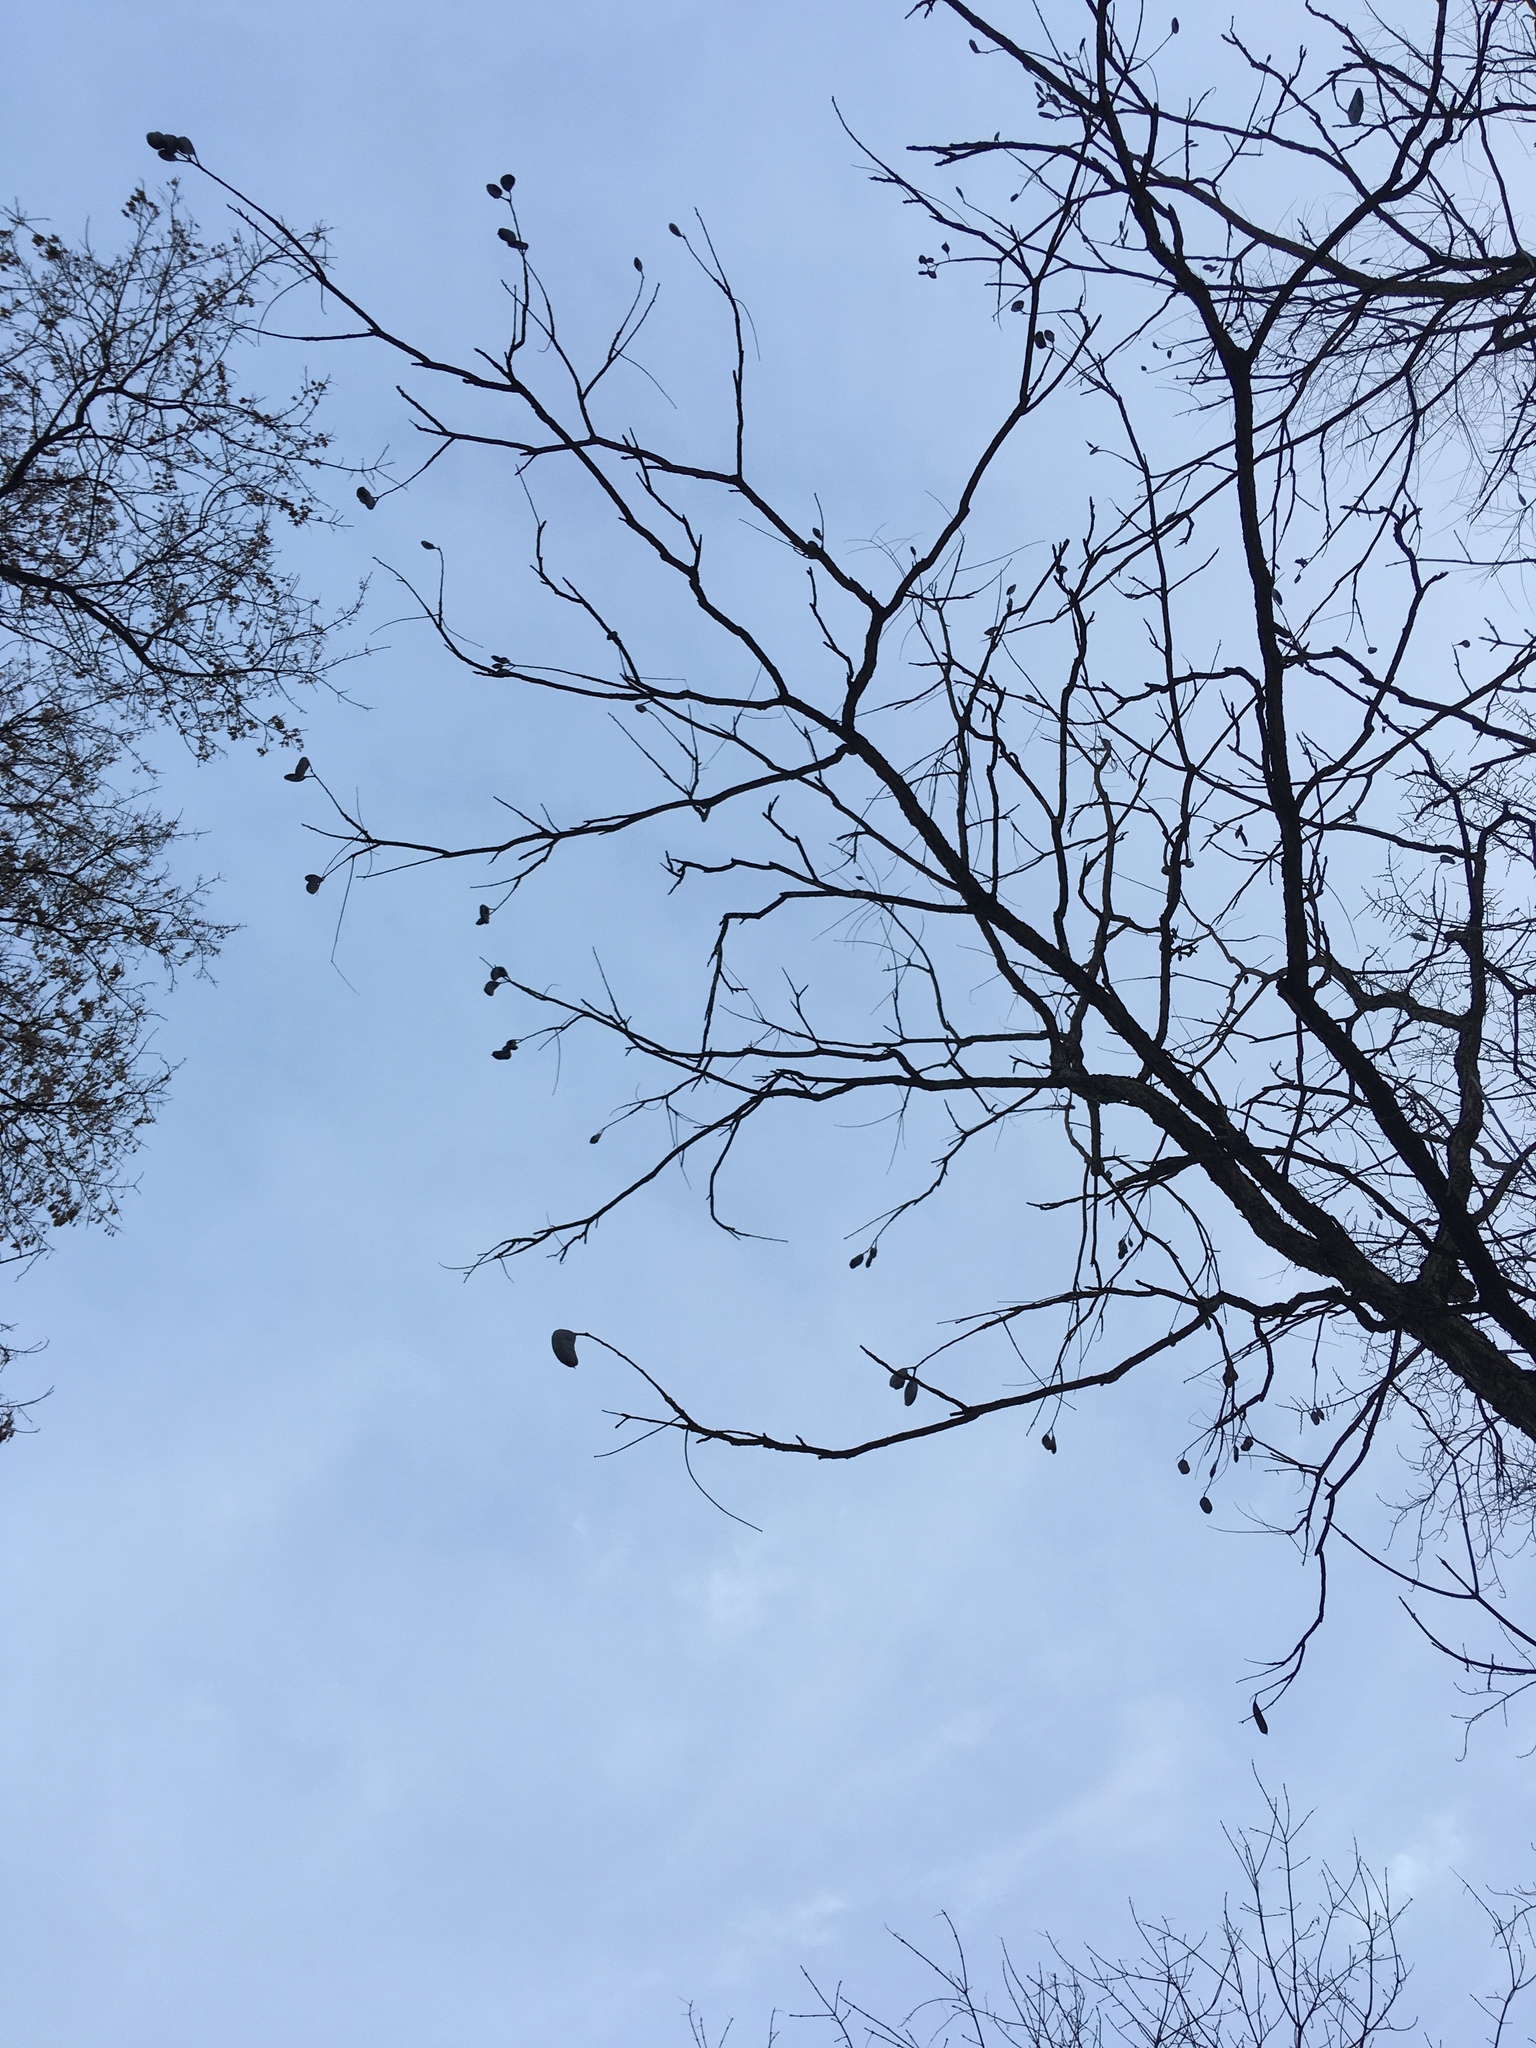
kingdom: Plantae
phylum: Tracheophyta
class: Magnoliopsida
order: Fabales
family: Fabaceae
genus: Gymnocladus
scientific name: Gymnocladus dioicus
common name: Kentucky coffee-tree
